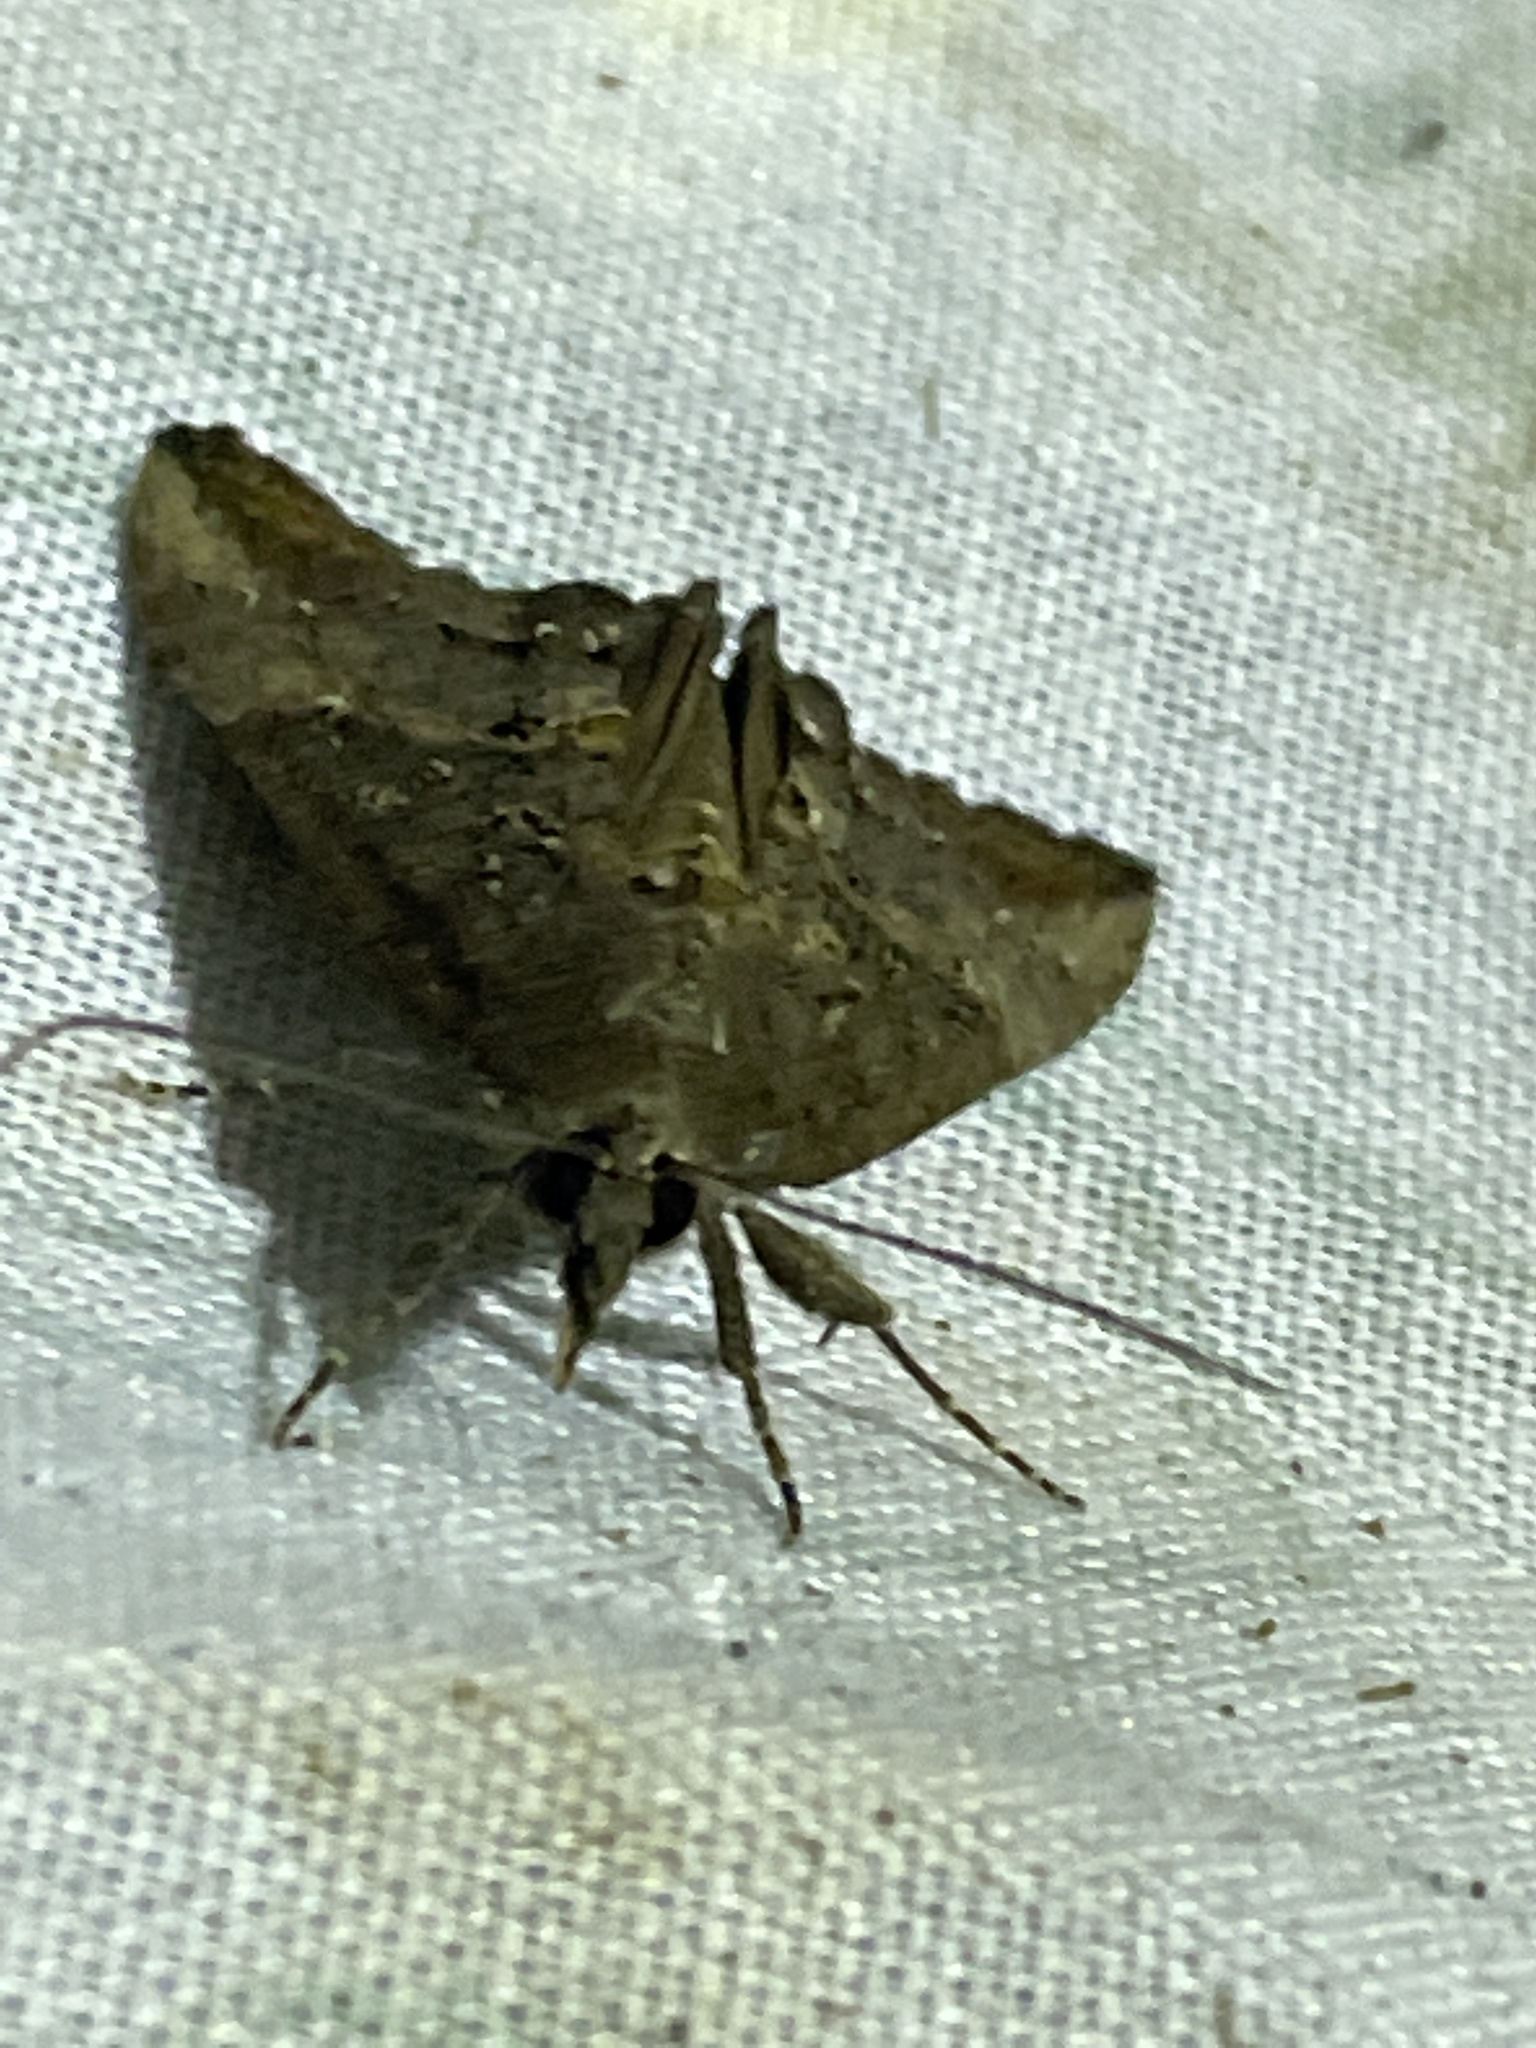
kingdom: Animalia
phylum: Arthropoda
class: Insecta
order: Lepidoptera
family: Erebidae
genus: Hypena
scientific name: Hypena scabra
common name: Green cloverworm
